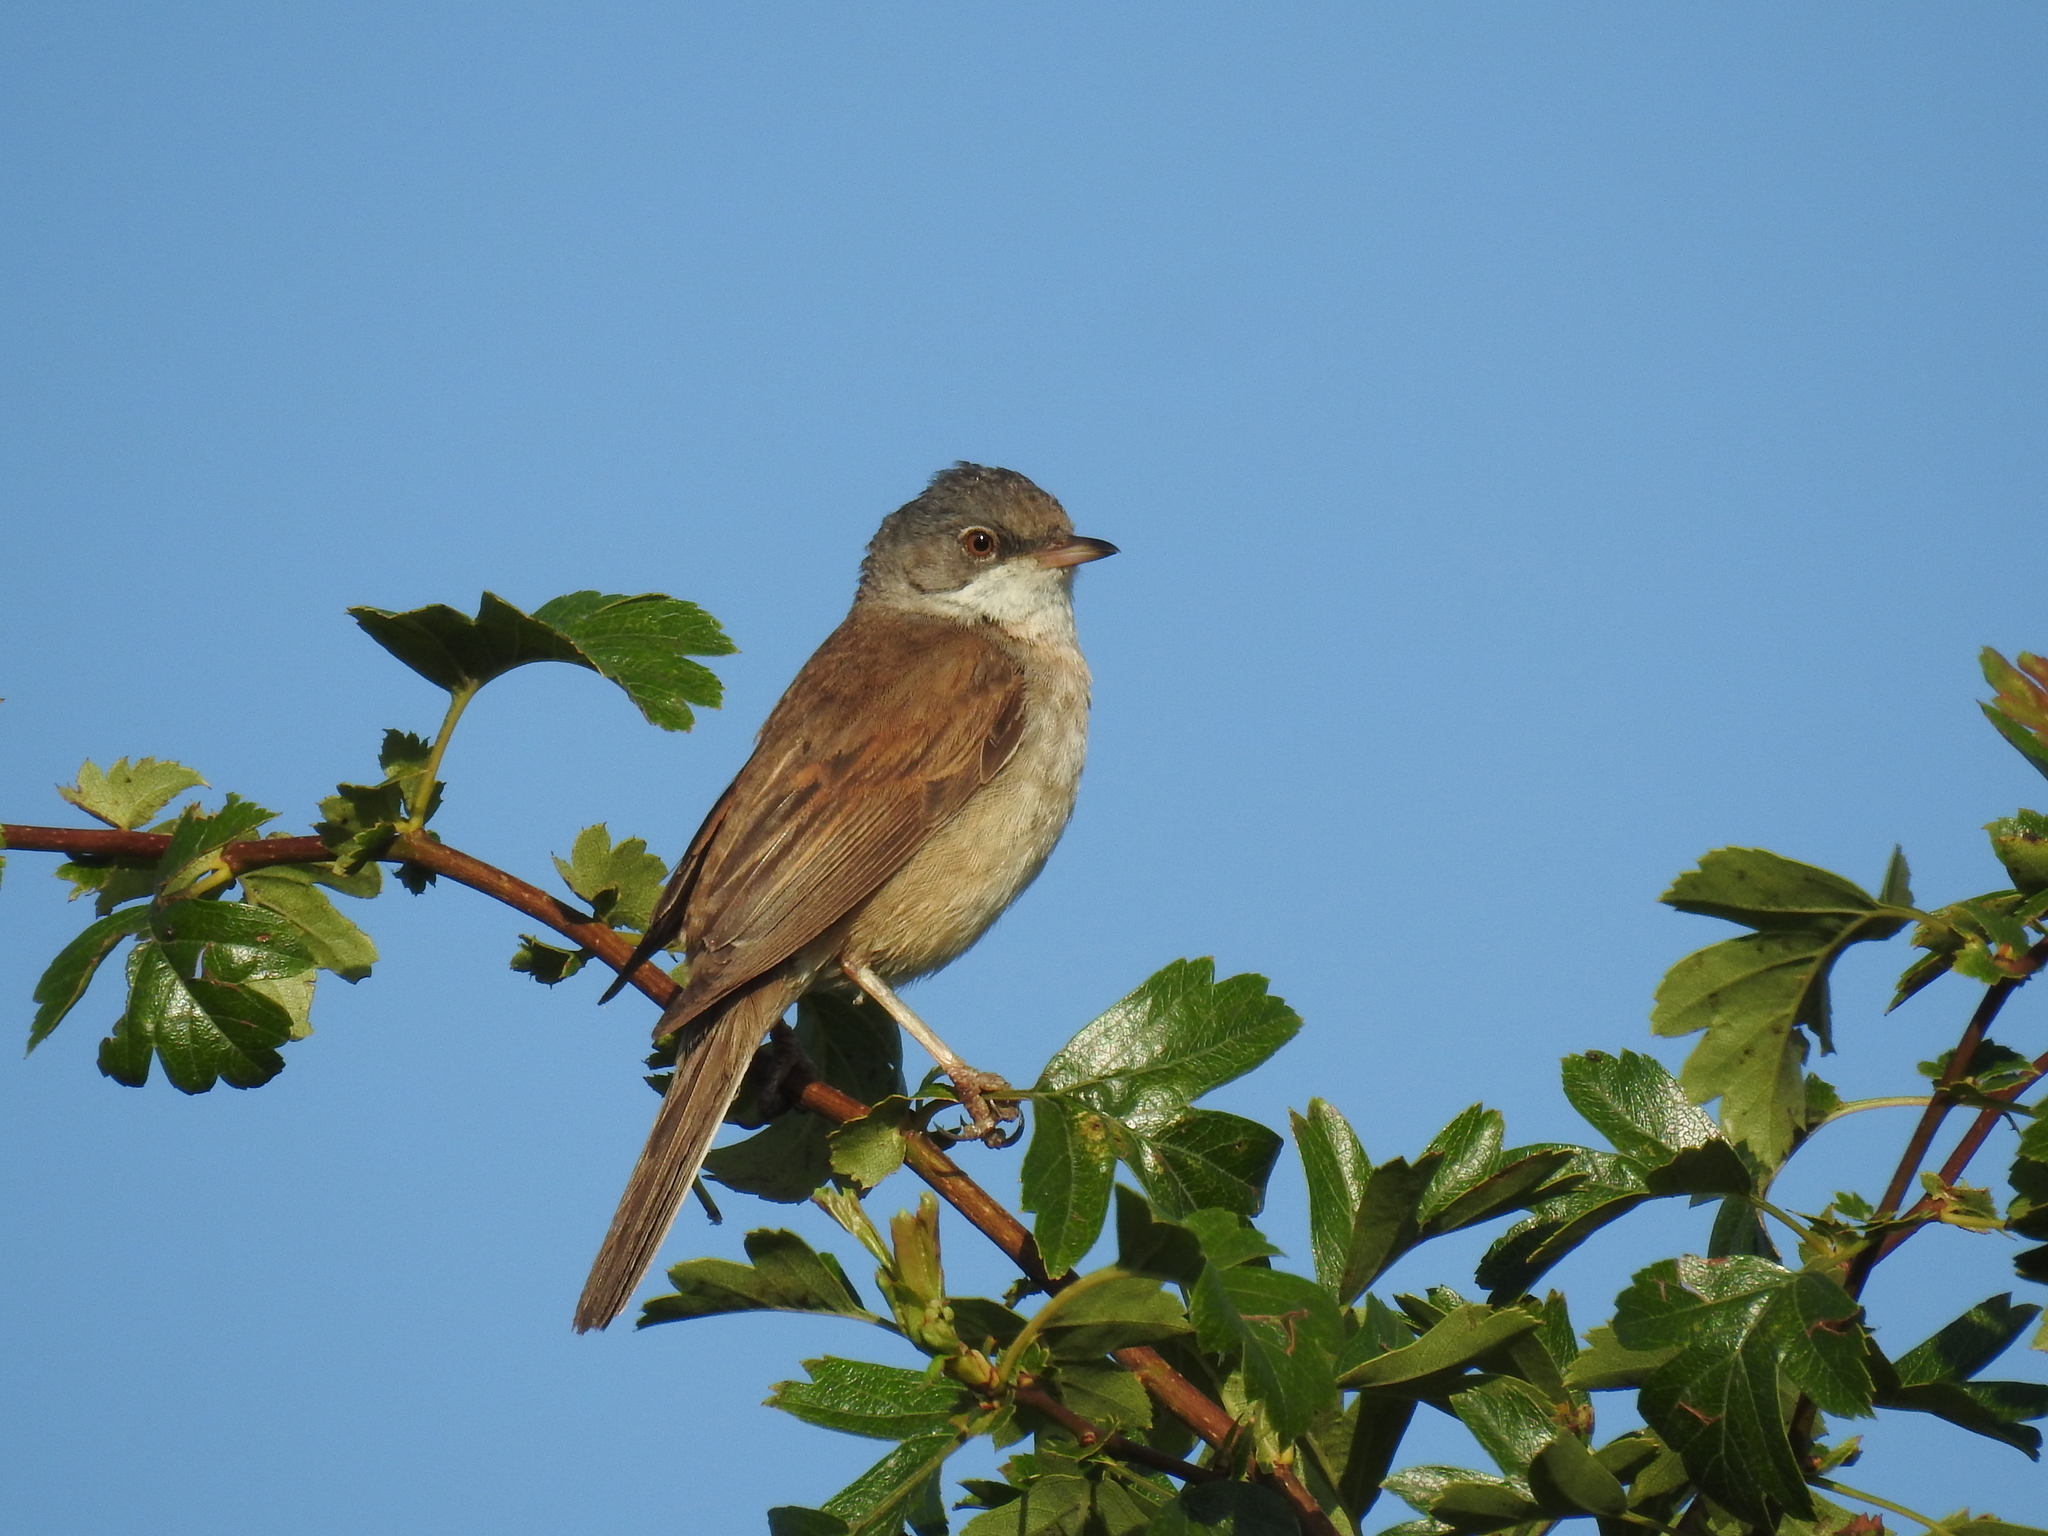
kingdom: Animalia
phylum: Chordata
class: Aves
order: Passeriformes
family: Sylviidae
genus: Sylvia
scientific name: Sylvia communis
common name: Common whitethroat
